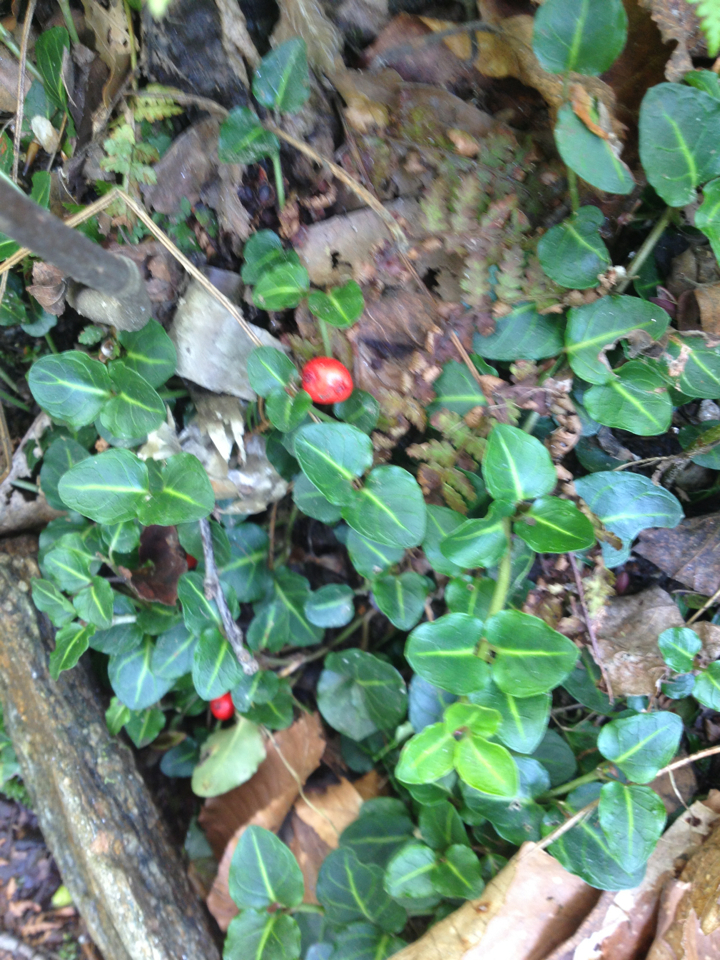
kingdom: Plantae
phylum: Tracheophyta
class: Magnoliopsida
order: Gentianales
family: Rubiaceae
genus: Mitchella
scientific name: Mitchella repens
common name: Partridge-berry
